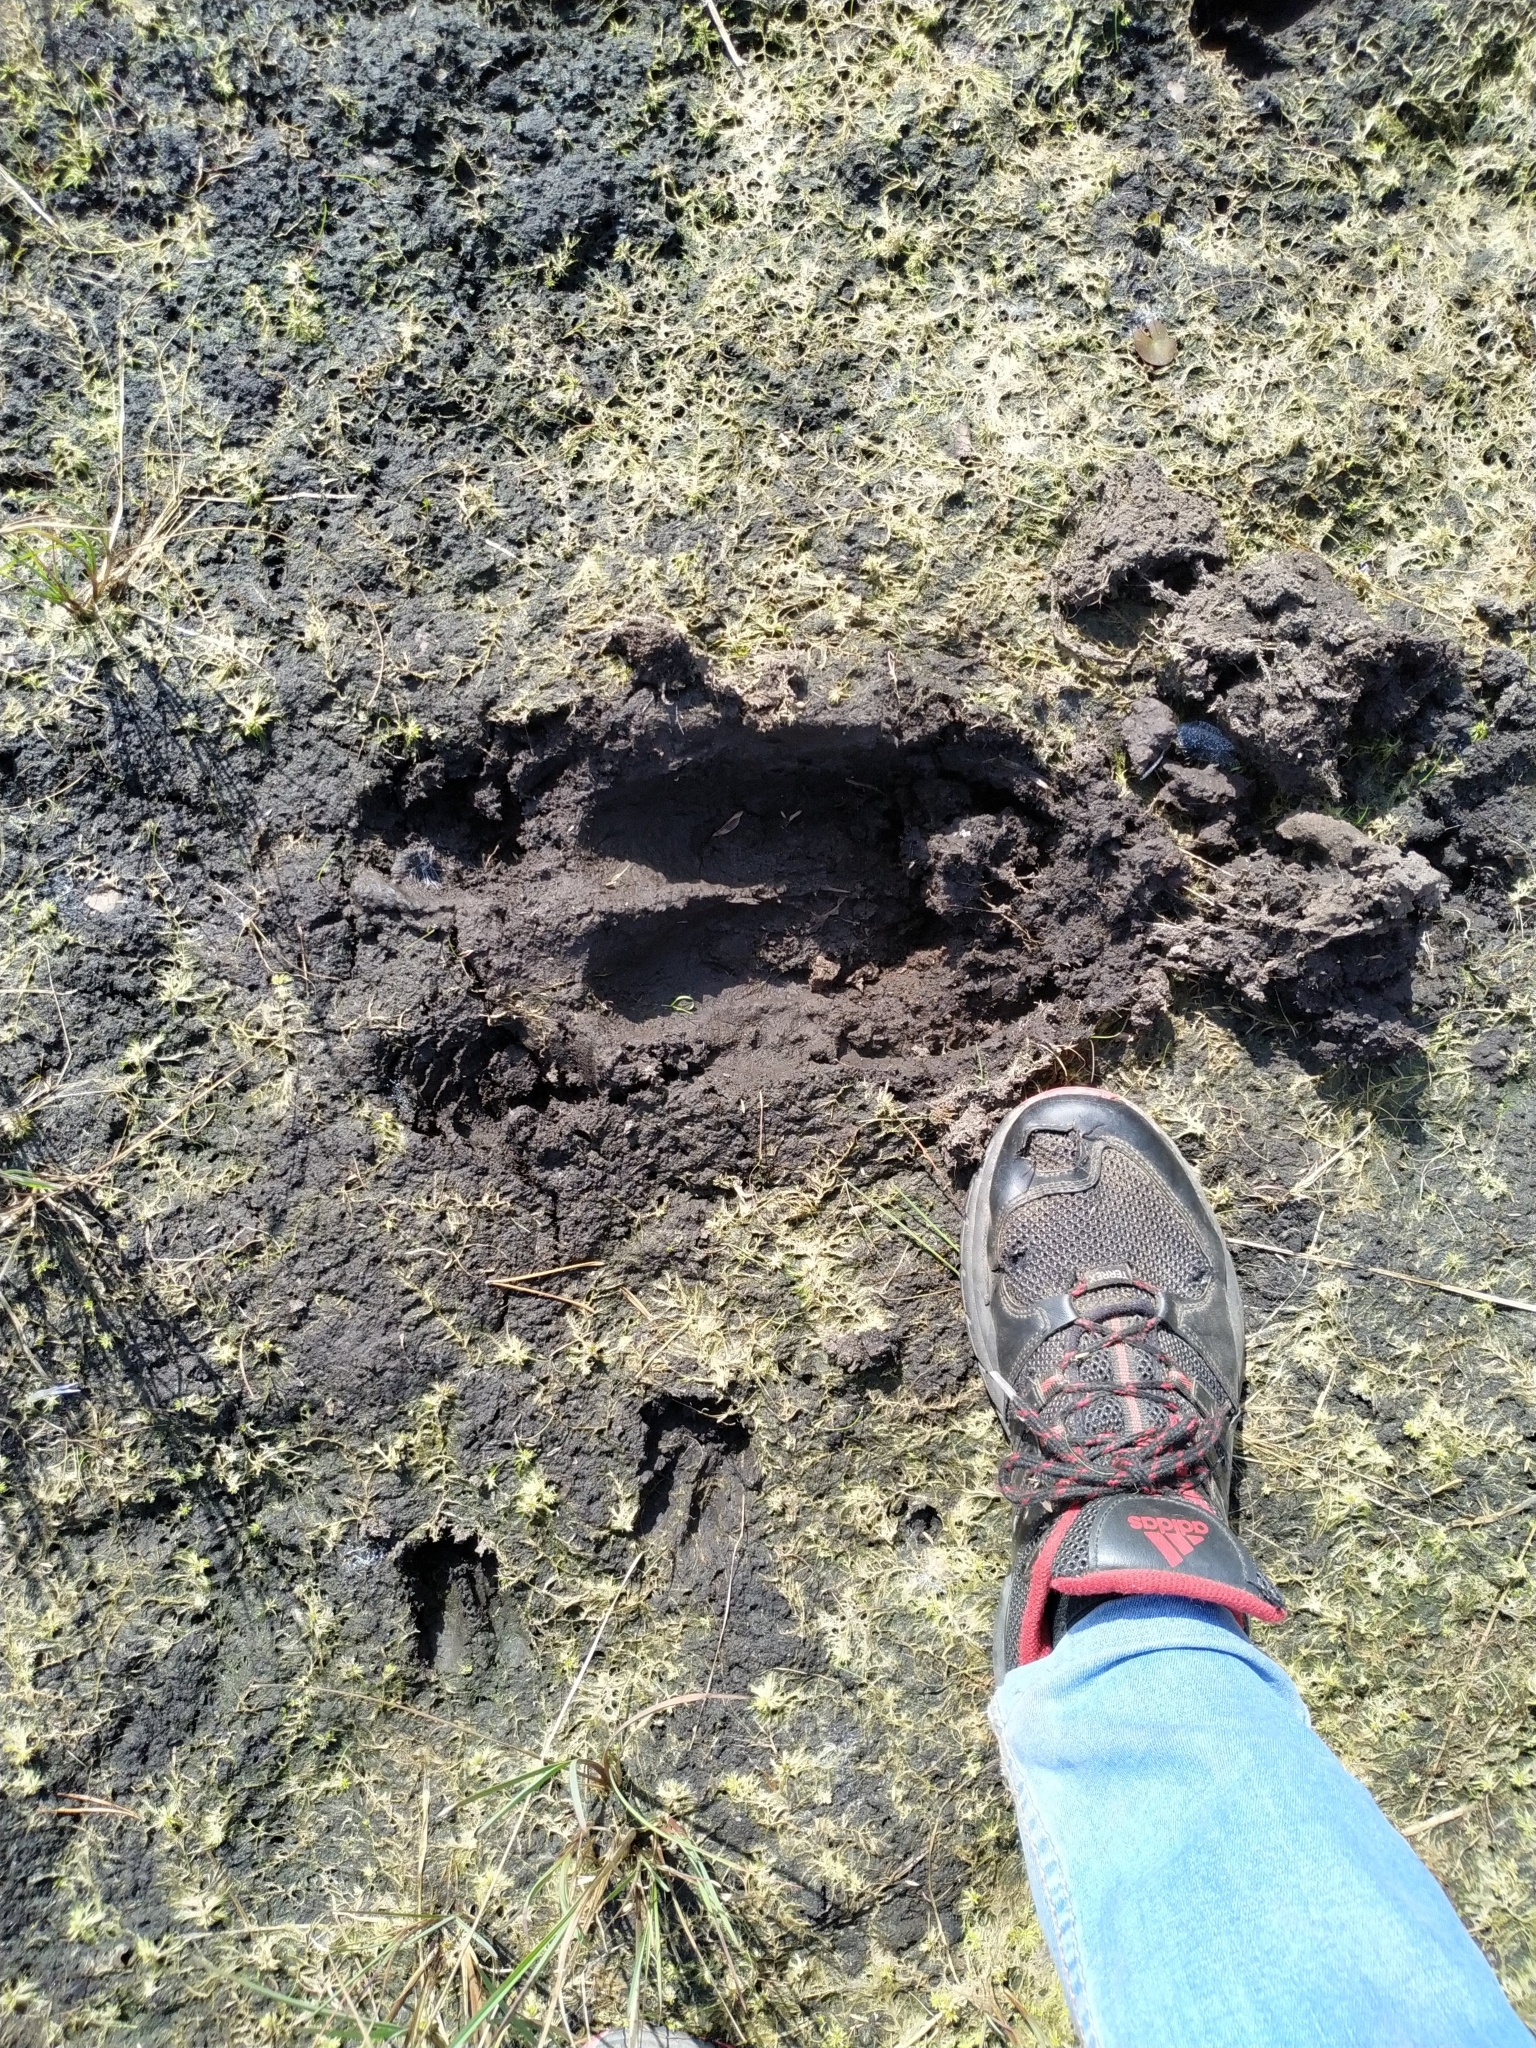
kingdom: Animalia
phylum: Chordata
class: Mammalia
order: Artiodactyla
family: Cervidae
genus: Alces
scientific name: Alces alces
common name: Moose
